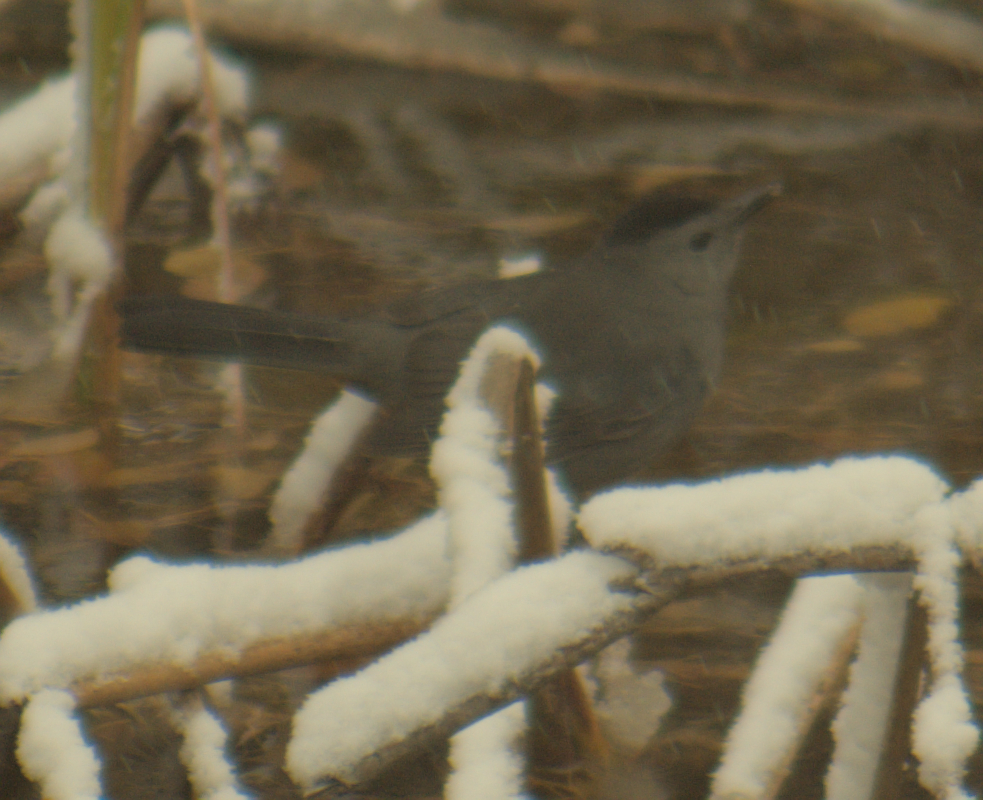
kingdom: Animalia
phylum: Chordata
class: Aves
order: Passeriformes
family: Mimidae
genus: Dumetella
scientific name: Dumetella carolinensis
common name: Gray catbird
